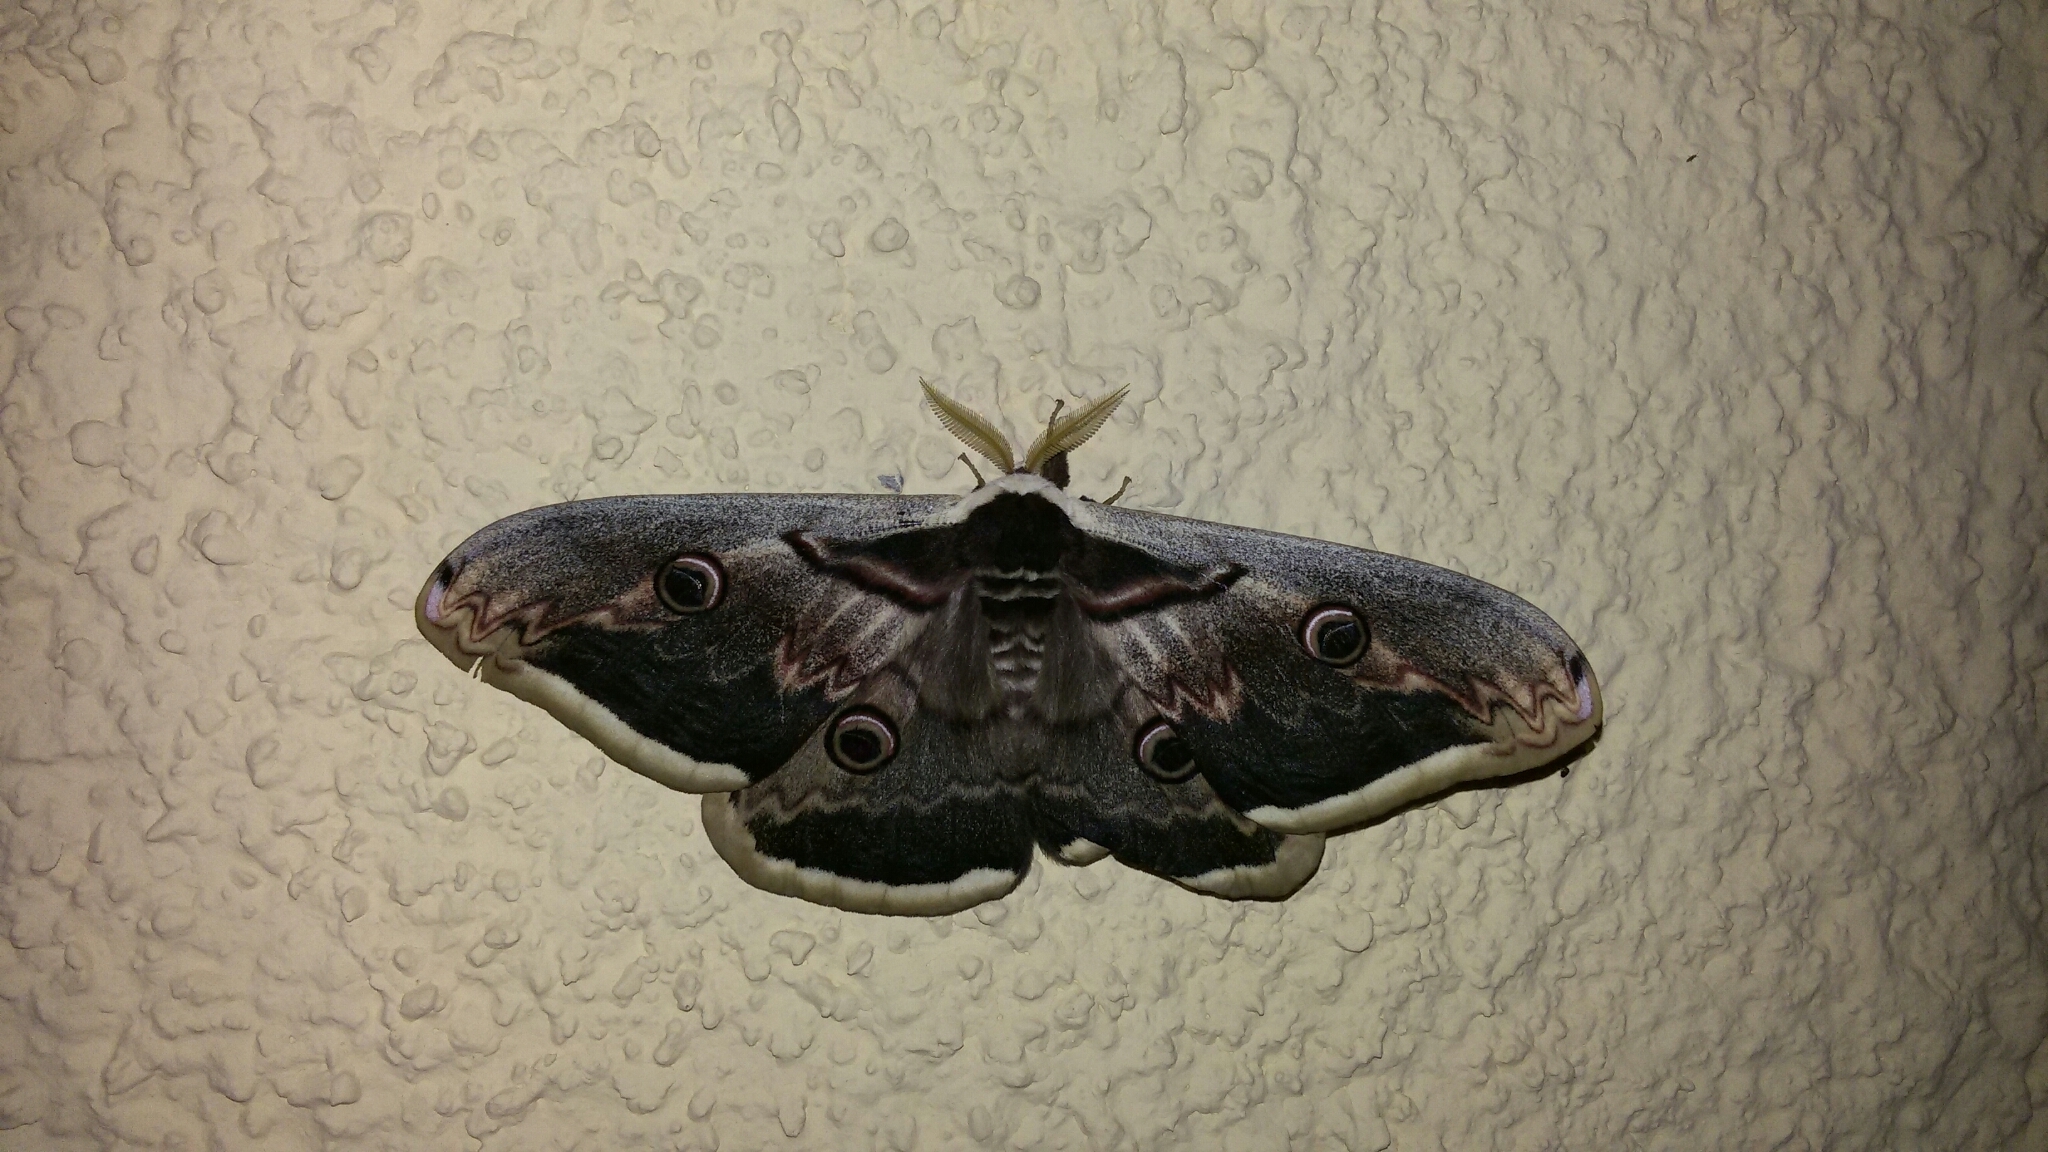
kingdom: Animalia
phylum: Arthropoda
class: Insecta
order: Lepidoptera
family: Saturniidae
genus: Saturnia
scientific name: Saturnia pyri
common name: Great peacock moth
